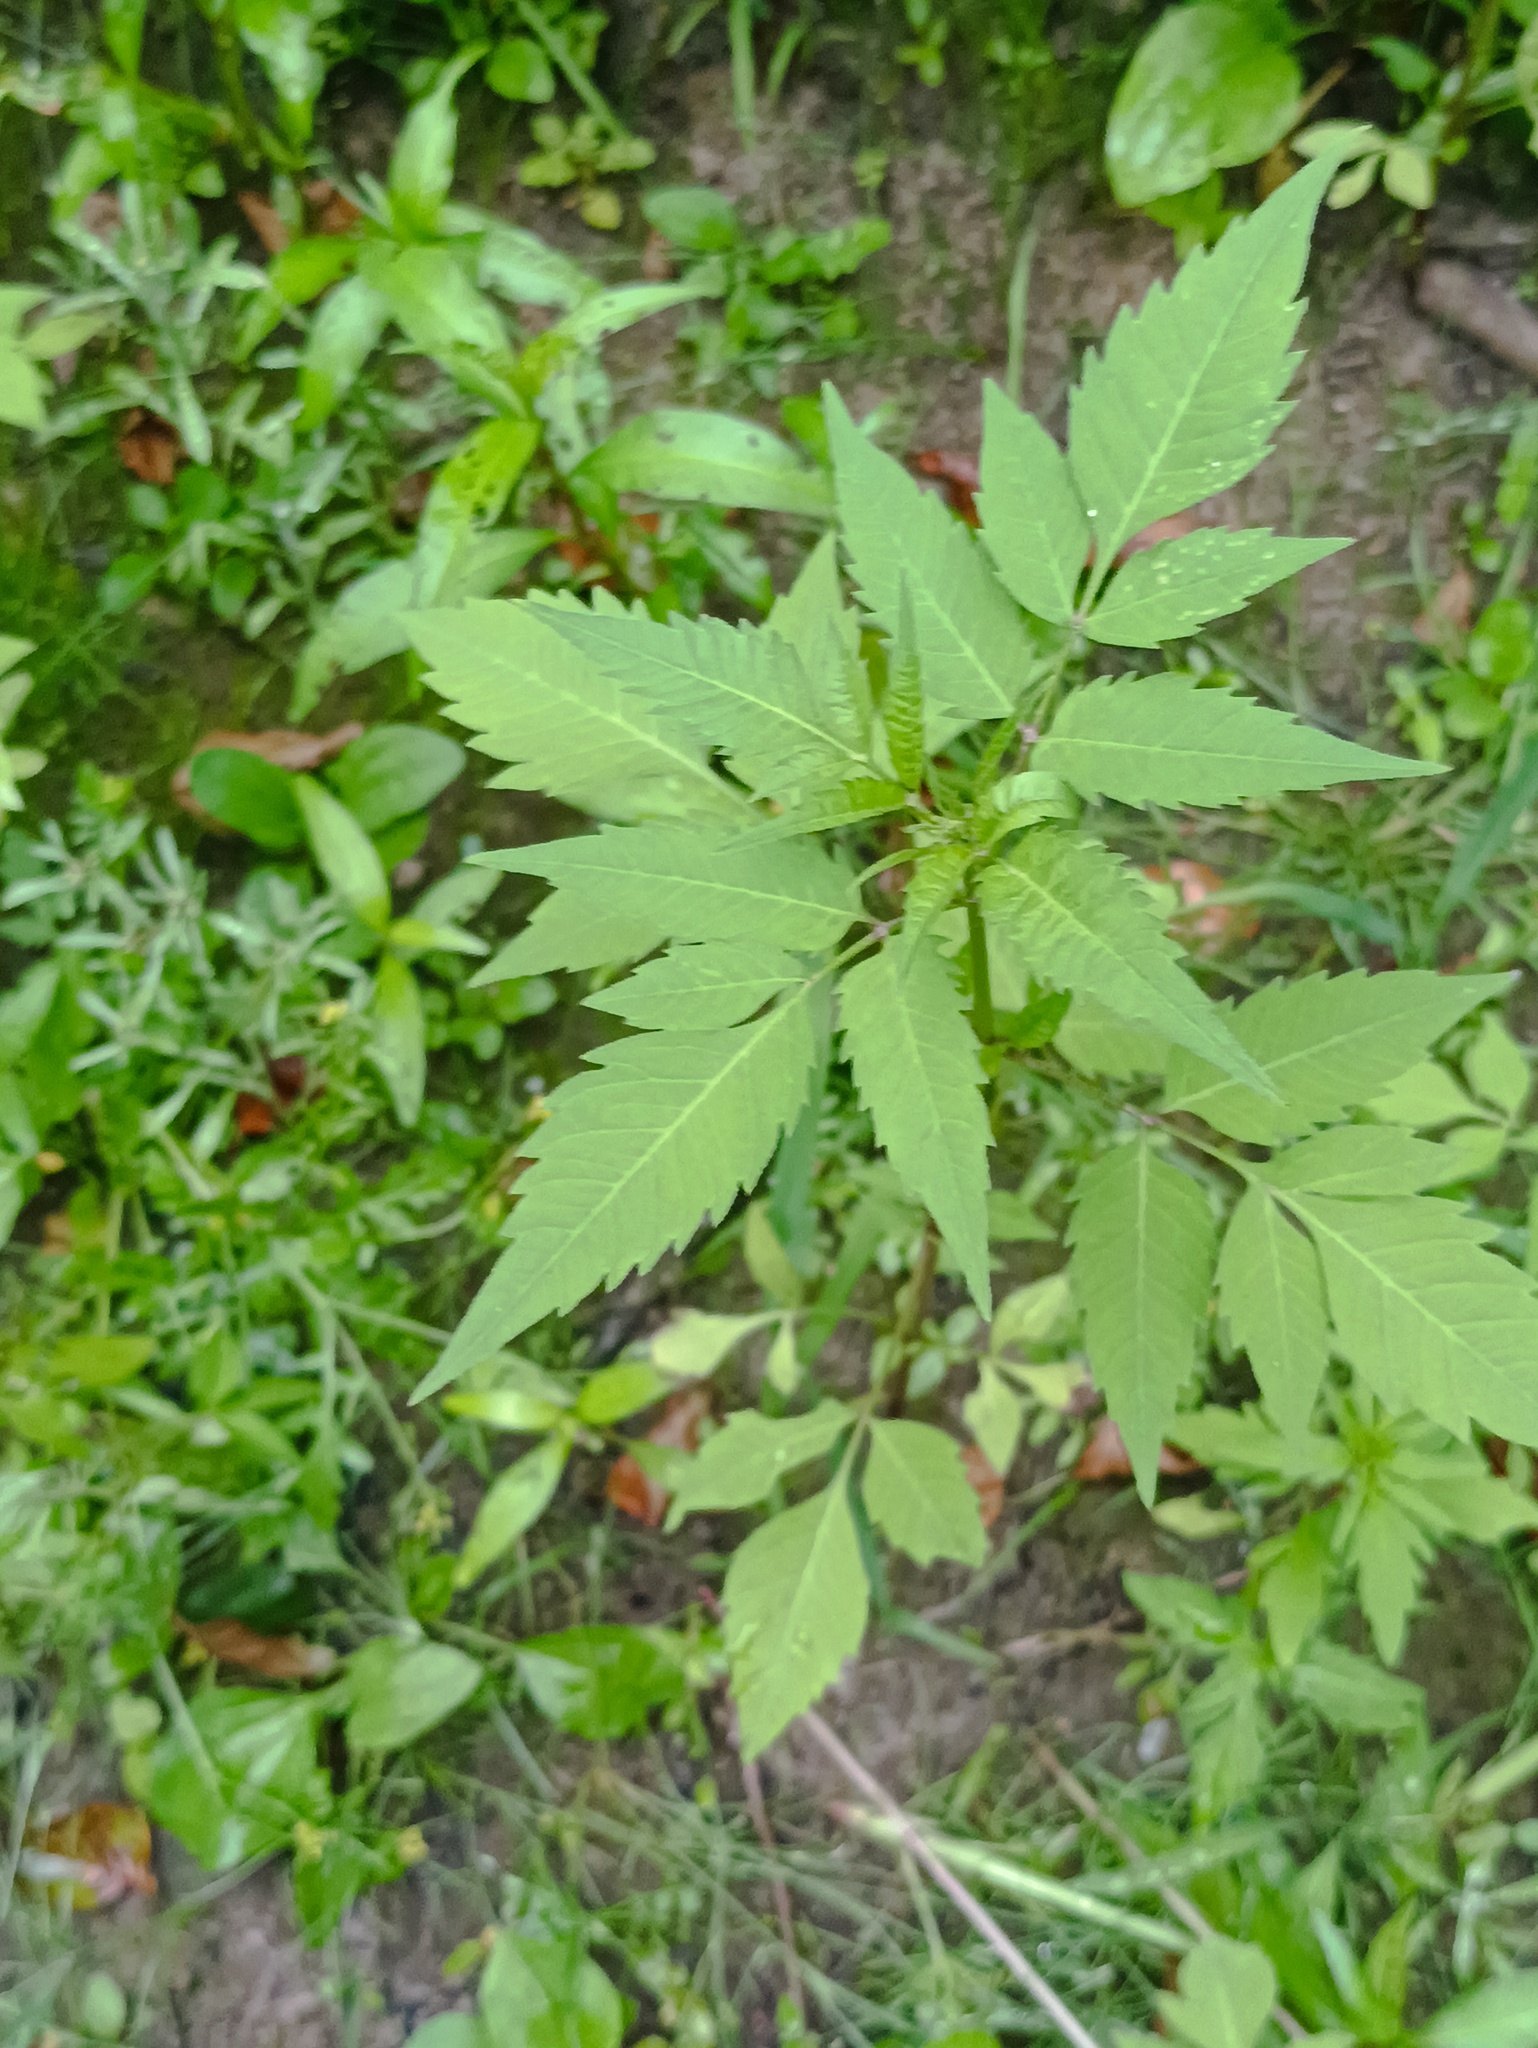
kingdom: Plantae
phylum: Tracheophyta
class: Magnoliopsida
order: Asterales
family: Asteraceae
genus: Bidens
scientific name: Bidens frondosa
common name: Beggarticks
